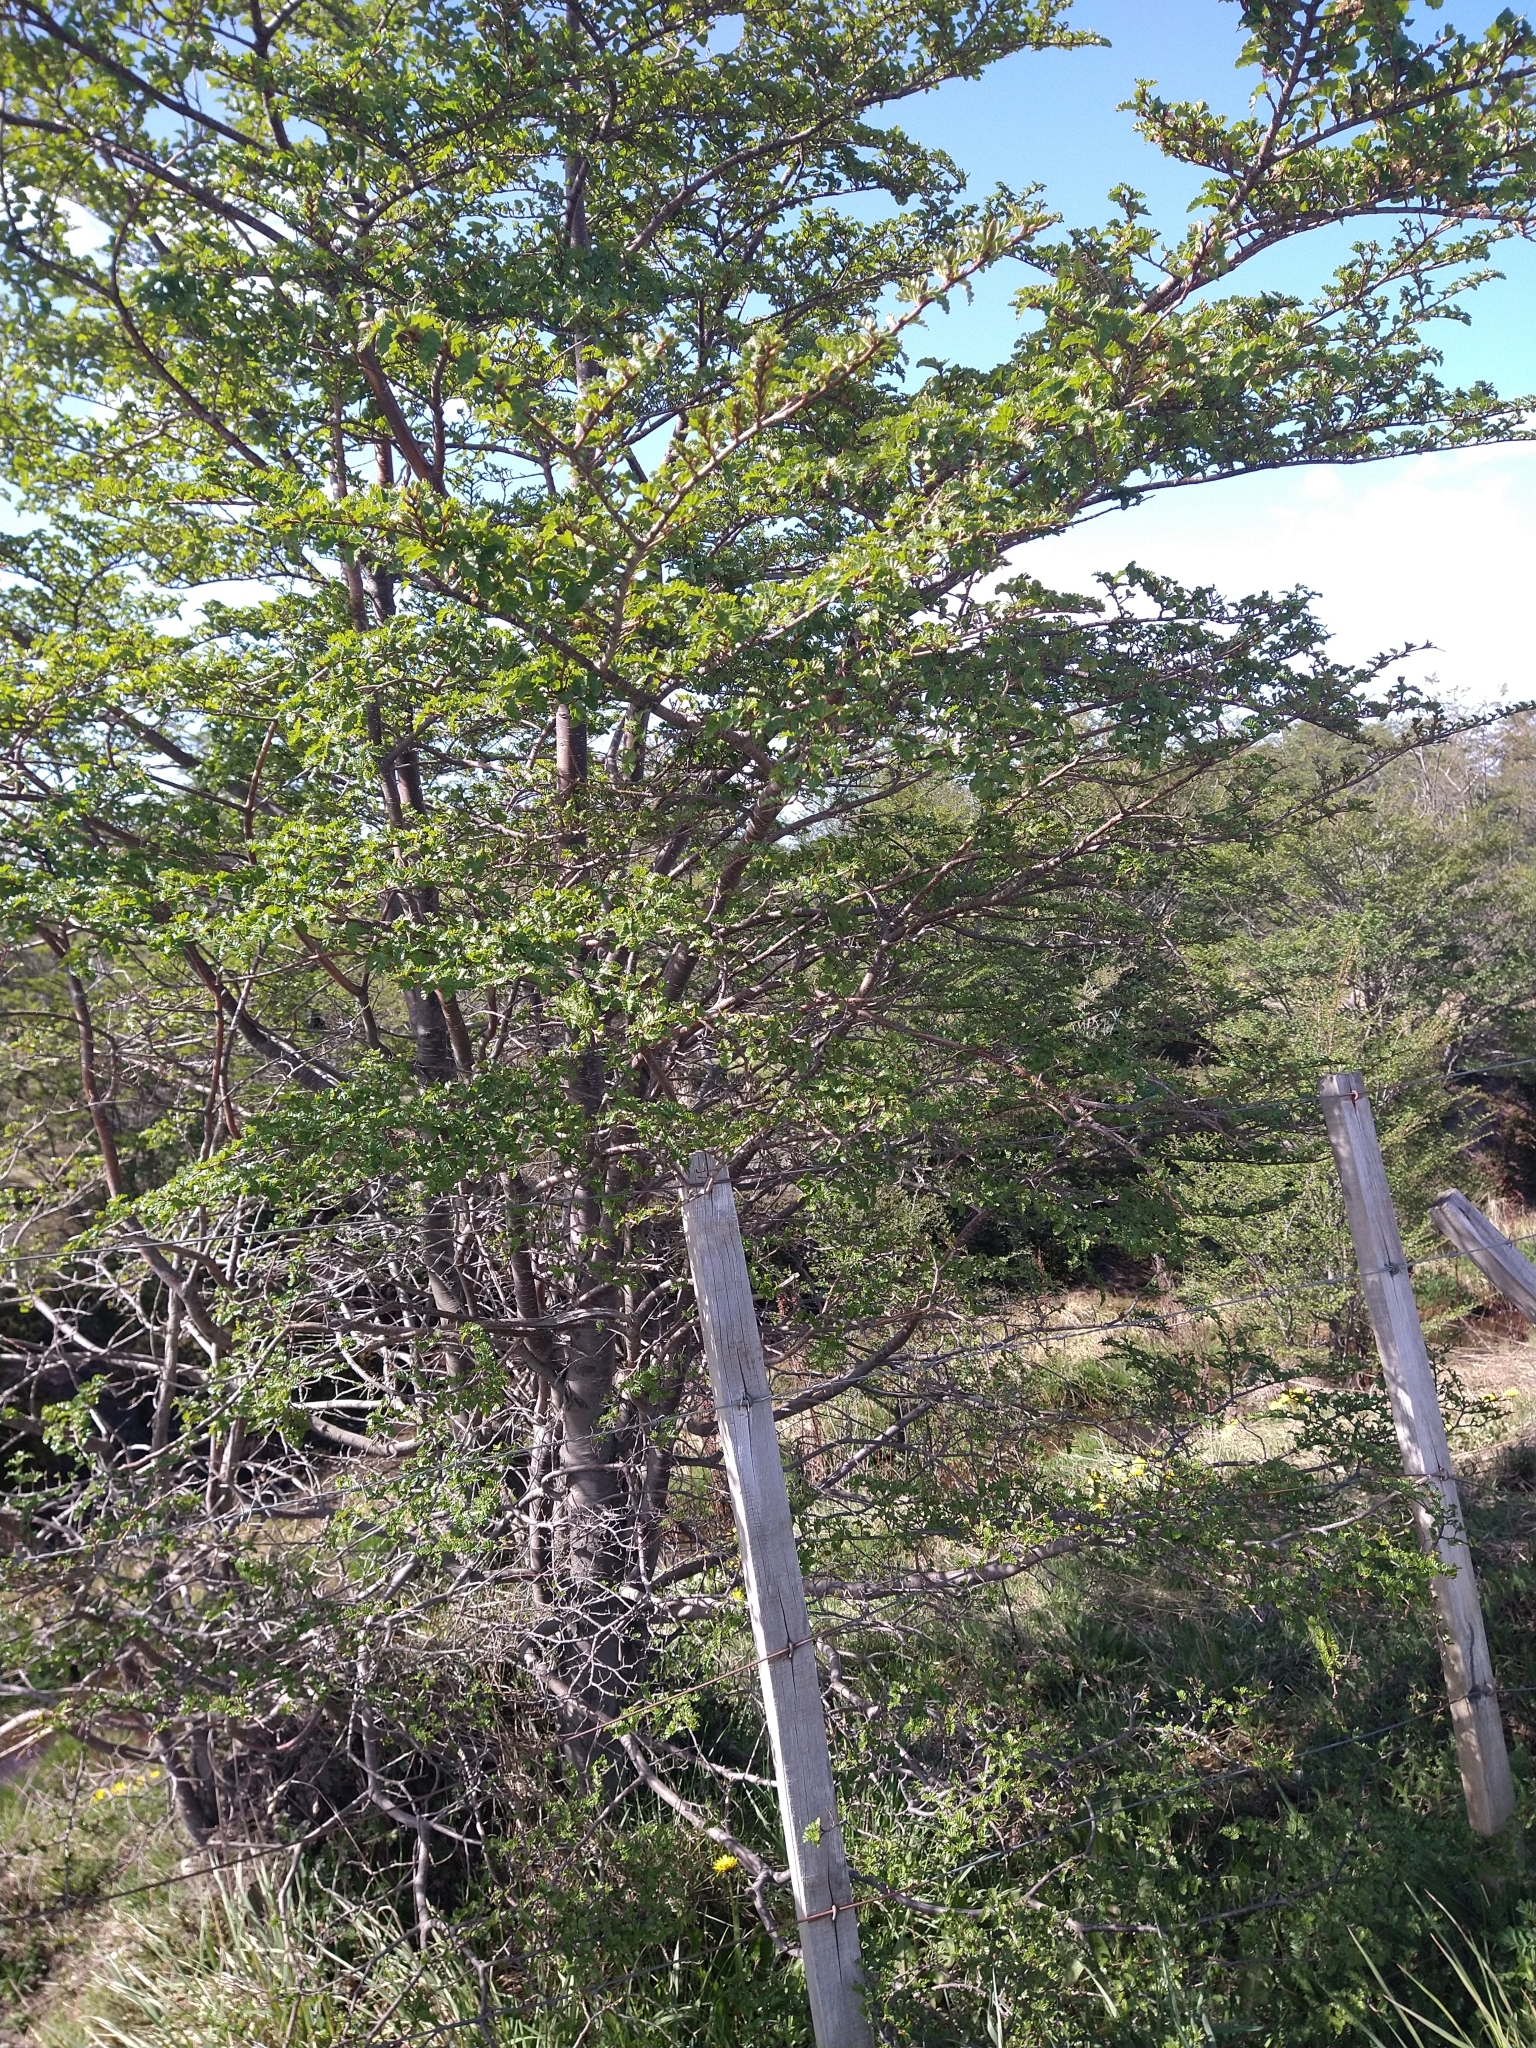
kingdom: Plantae
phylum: Tracheophyta
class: Magnoliopsida
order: Fagales
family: Nothofagaceae
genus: Nothofagus
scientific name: Nothofagus antarctica
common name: Antarctic beech
